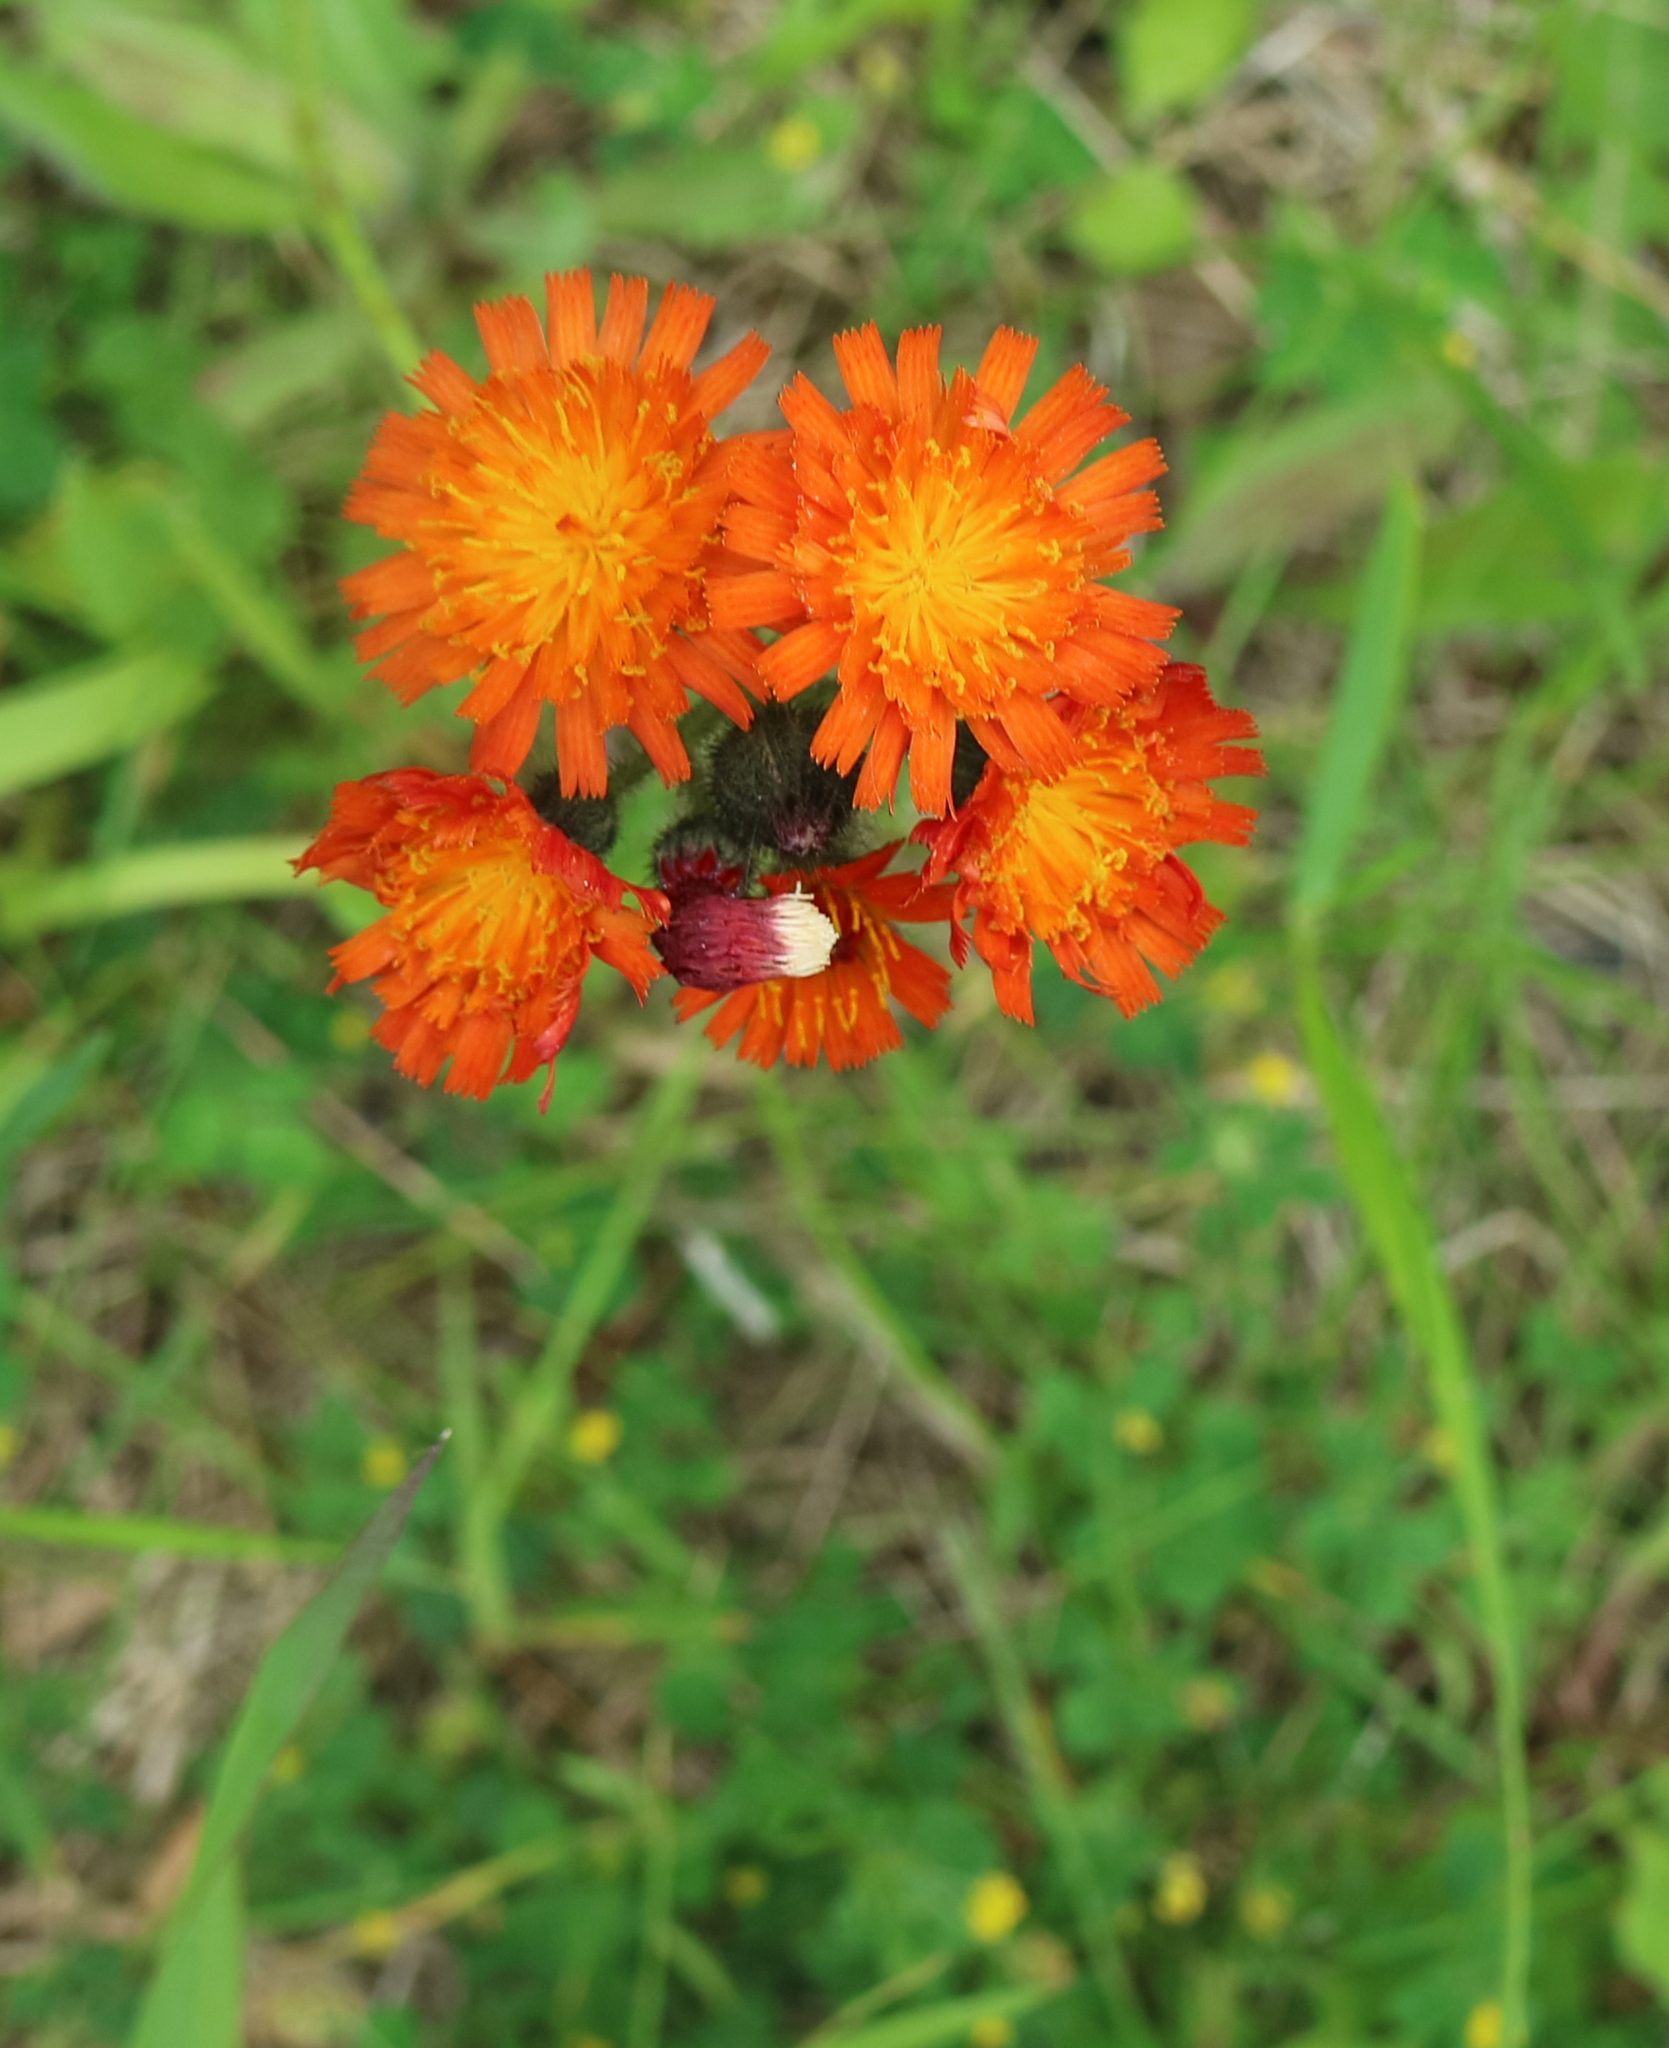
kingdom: Plantae
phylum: Tracheophyta
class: Magnoliopsida
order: Asterales
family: Asteraceae
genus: Pilosella
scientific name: Pilosella aurantiaca
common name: Fox-and-cubs
